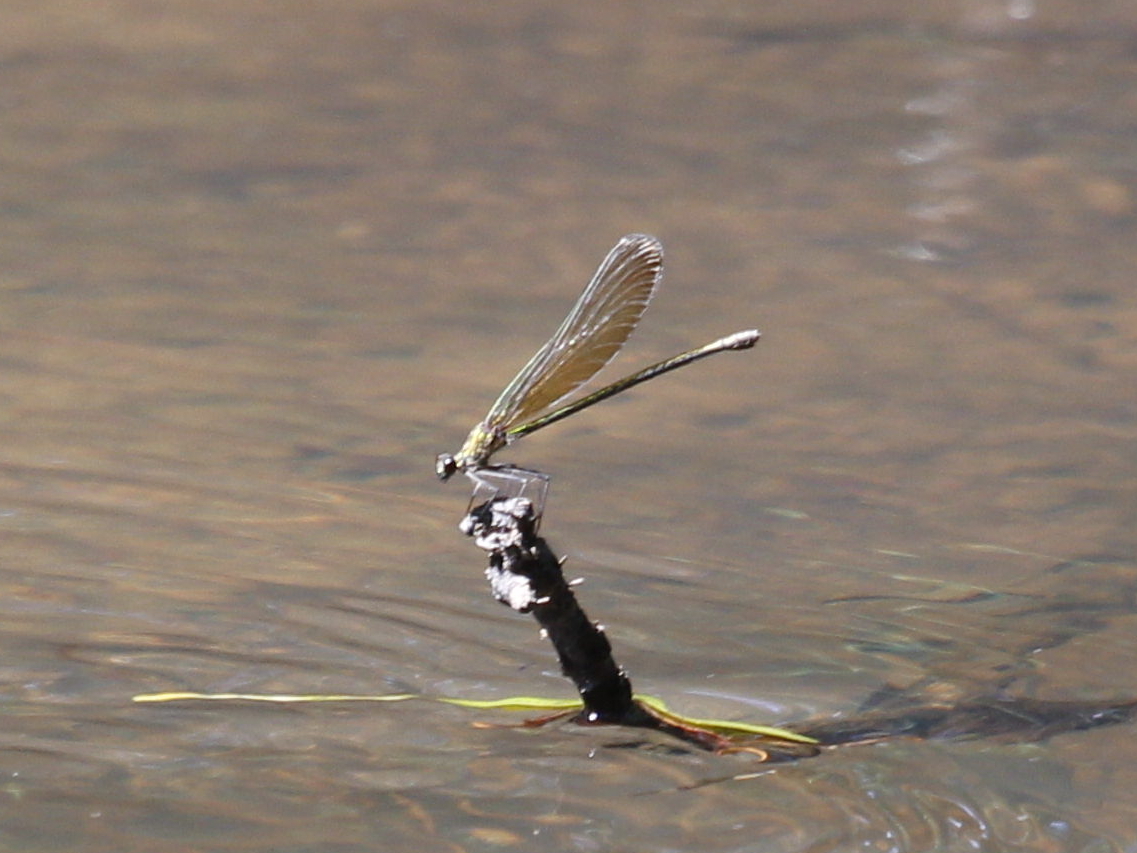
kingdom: Animalia
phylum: Arthropoda
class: Insecta
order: Odonata
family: Calopterygidae
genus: Calopteryx
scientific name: Calopteryx dimidiata
